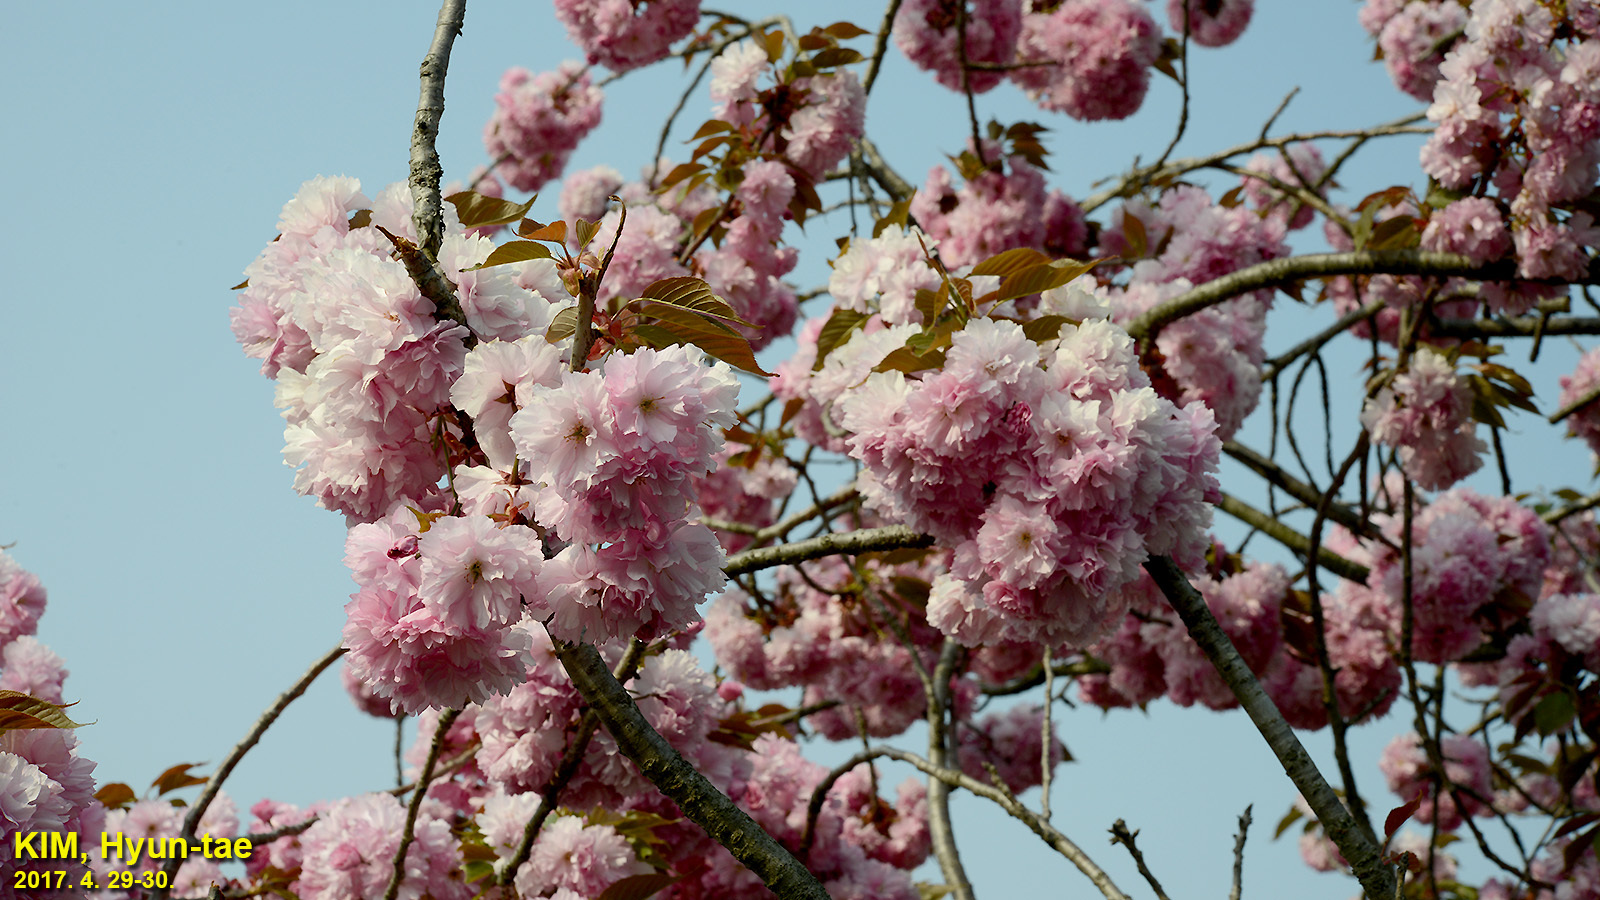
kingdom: Plantae
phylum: Tracheophyta
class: Magnoliopsida
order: Rosales
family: Rosaceae
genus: Prunus
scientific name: Prunus serrulata
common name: Japanese cherry
